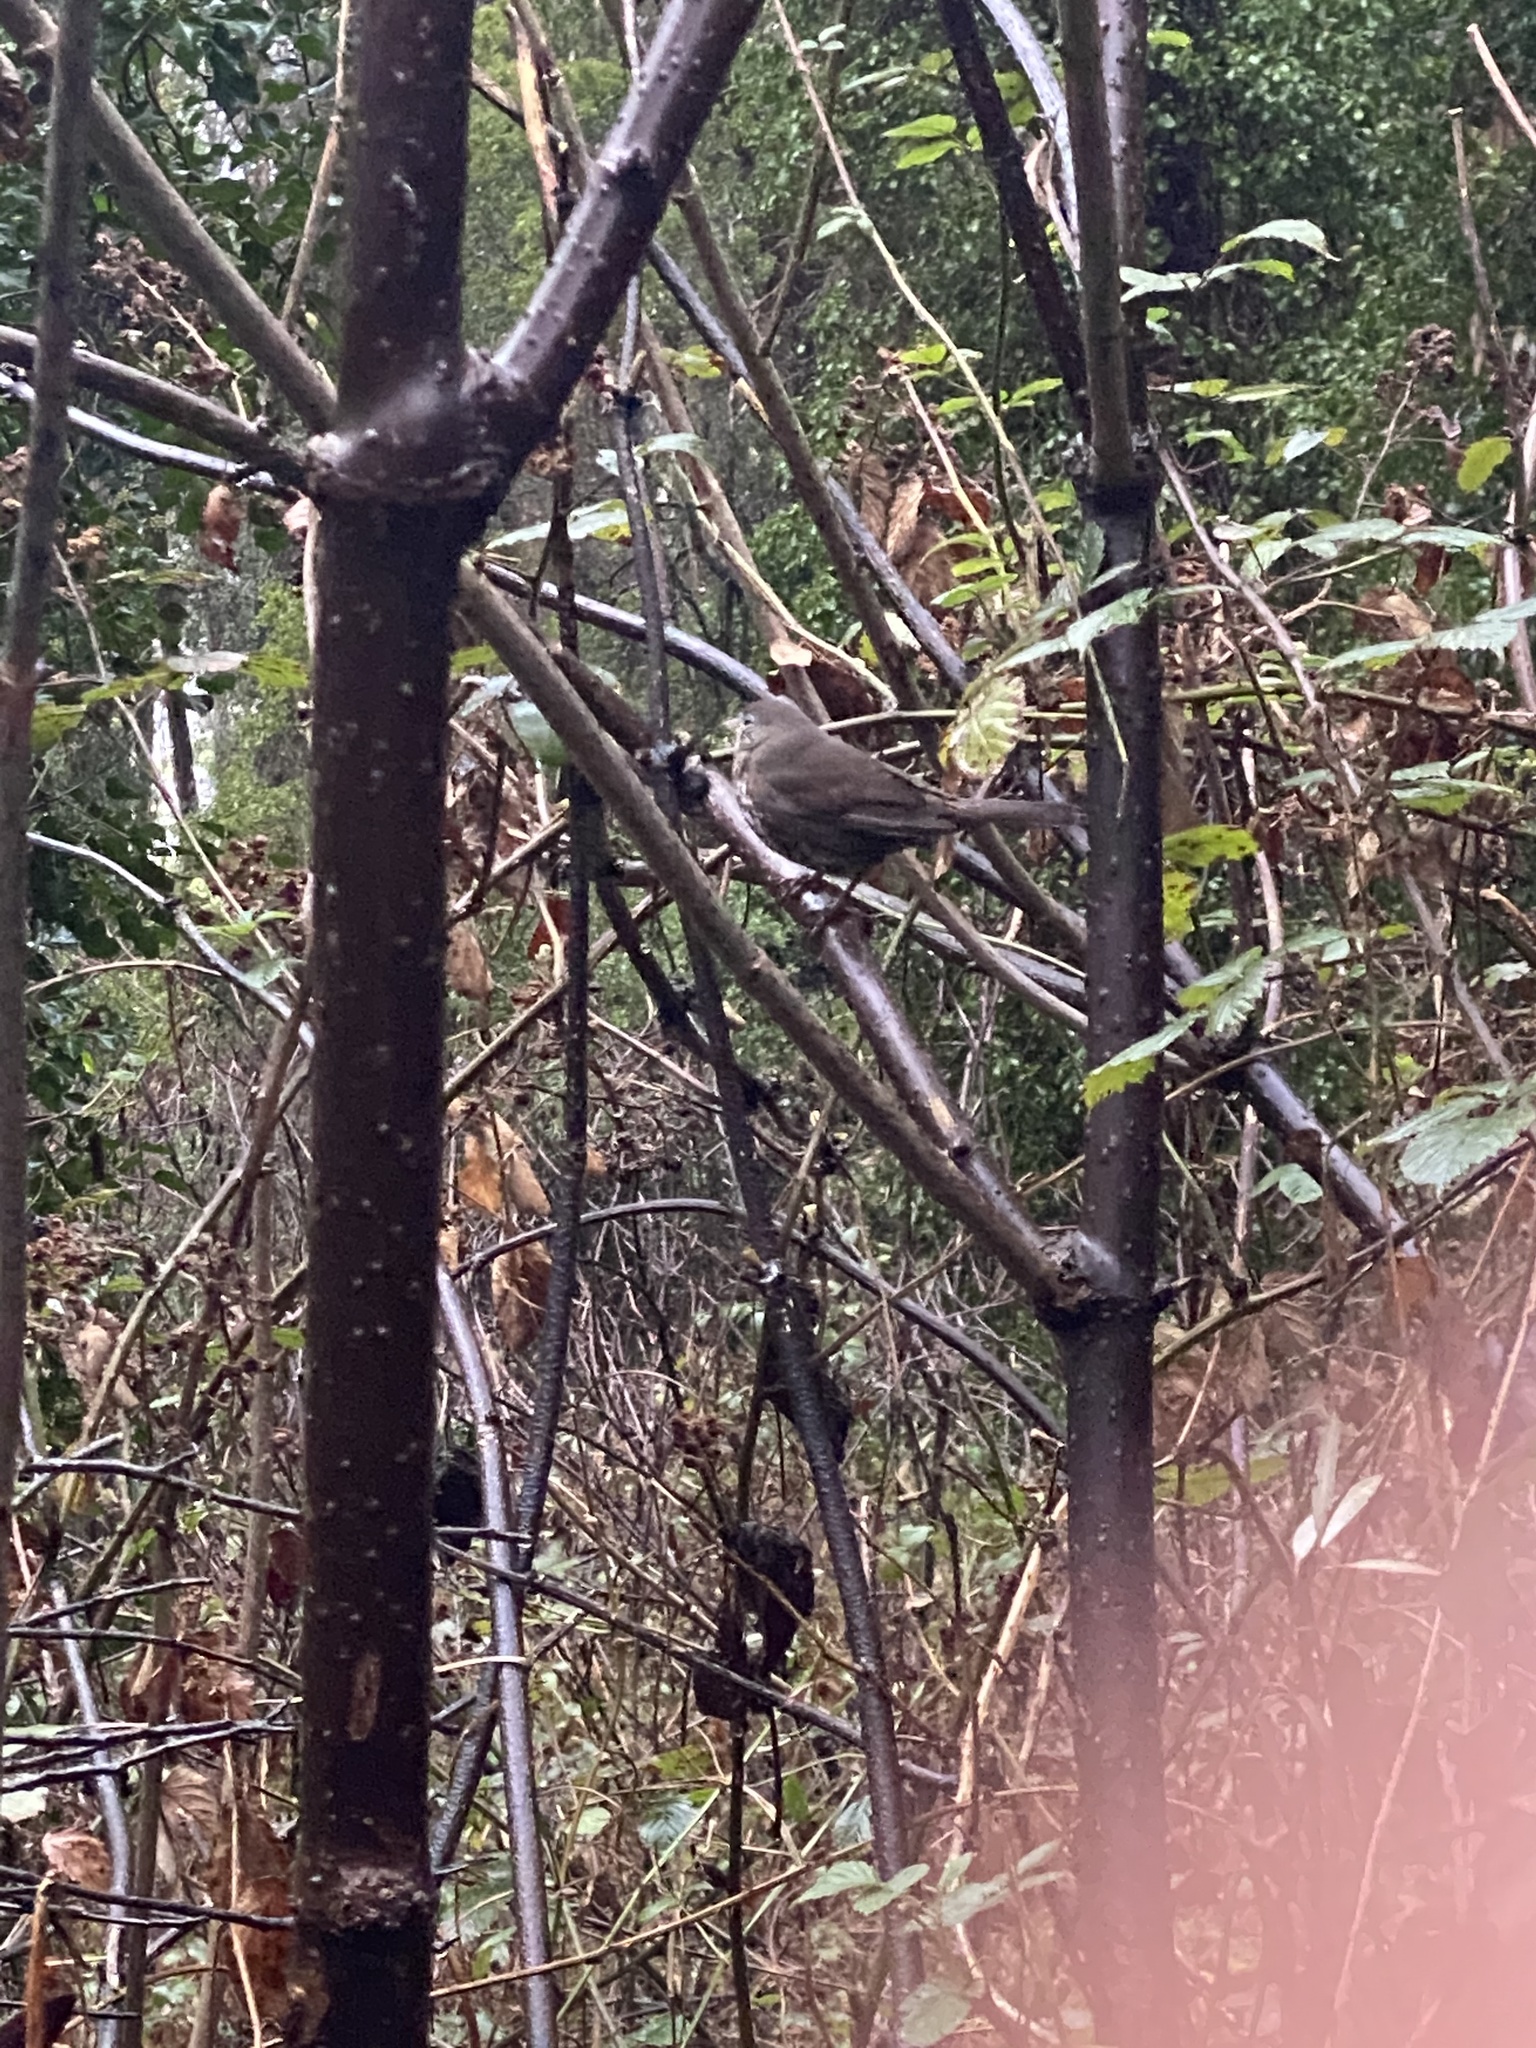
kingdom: Animalia
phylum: Chordata
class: Aves
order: Passeriformes
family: Passerellidae
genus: Passerella
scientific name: Passerella iliaca
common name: Fox sparrow
